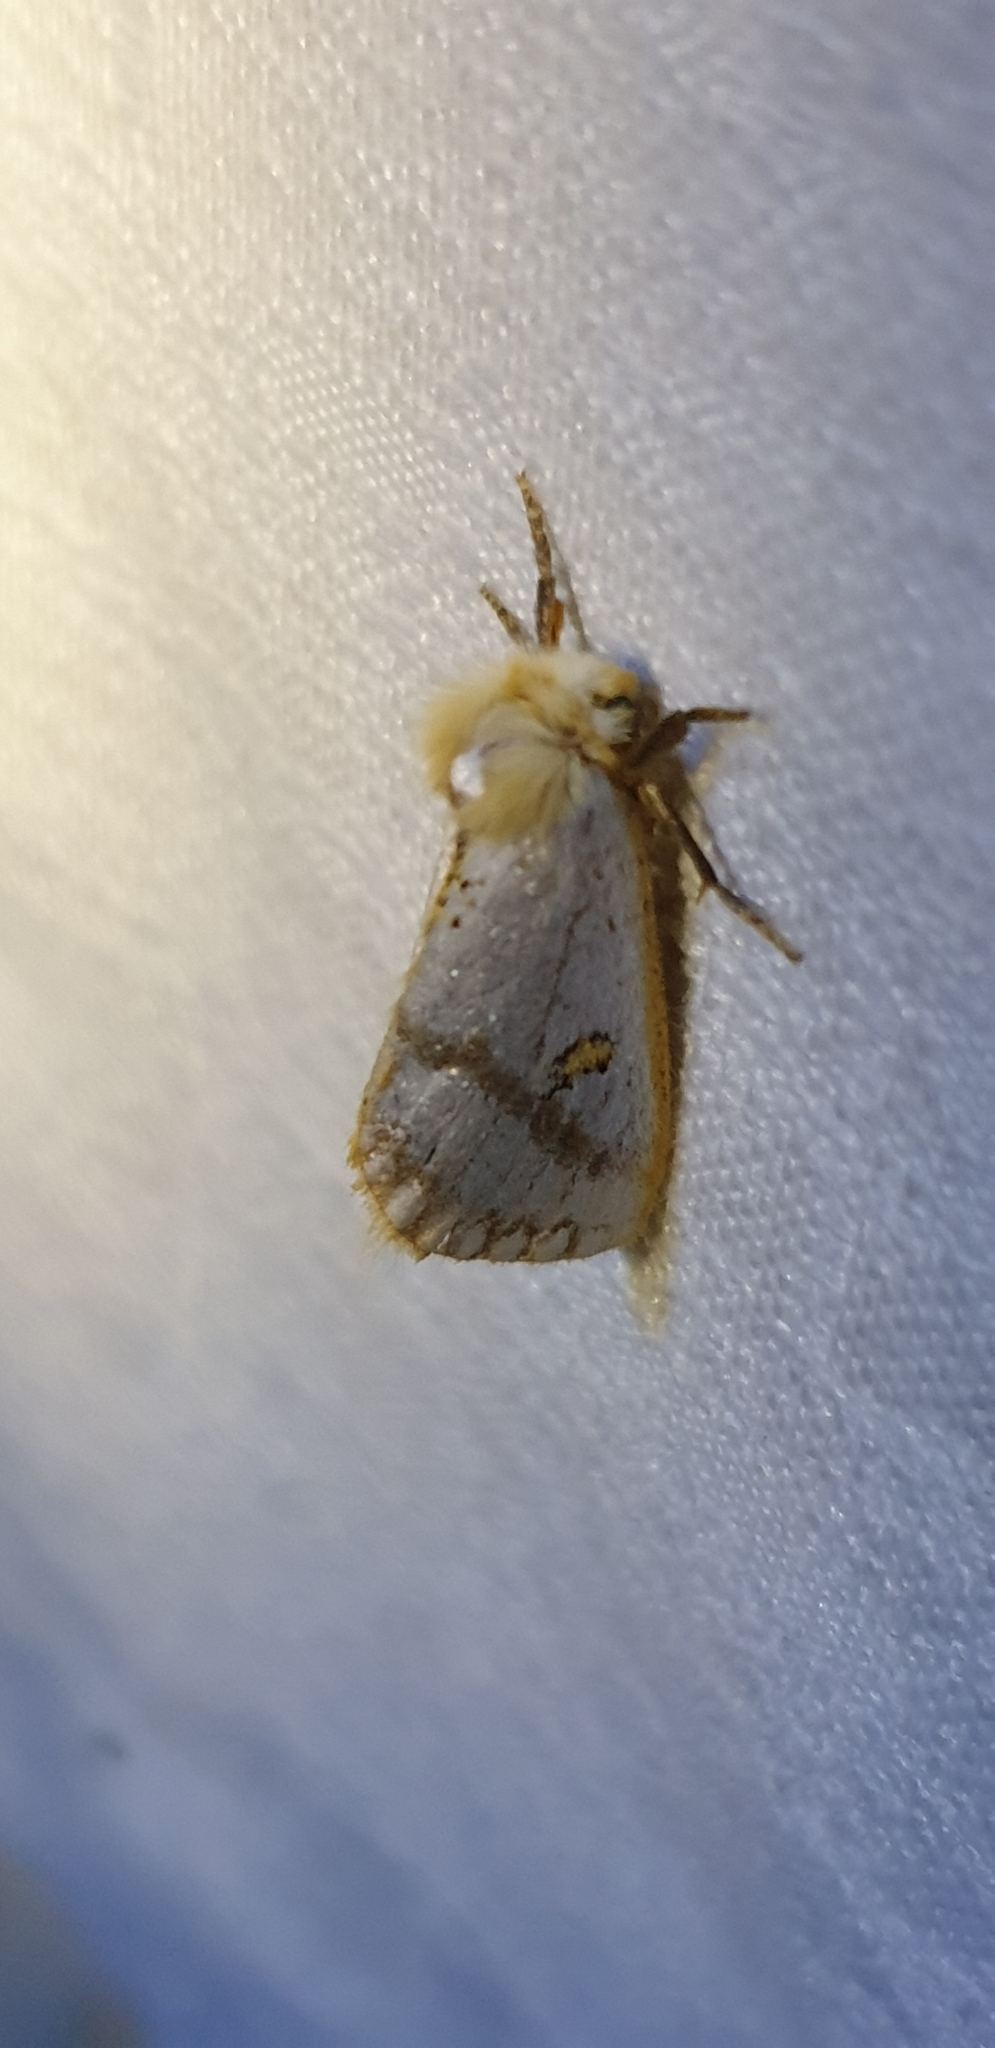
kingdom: Animalia
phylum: Arthropoda
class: Insecta
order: Lepidoptera
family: Notodontidae
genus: Epicoma
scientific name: Epicoma melanosticta
